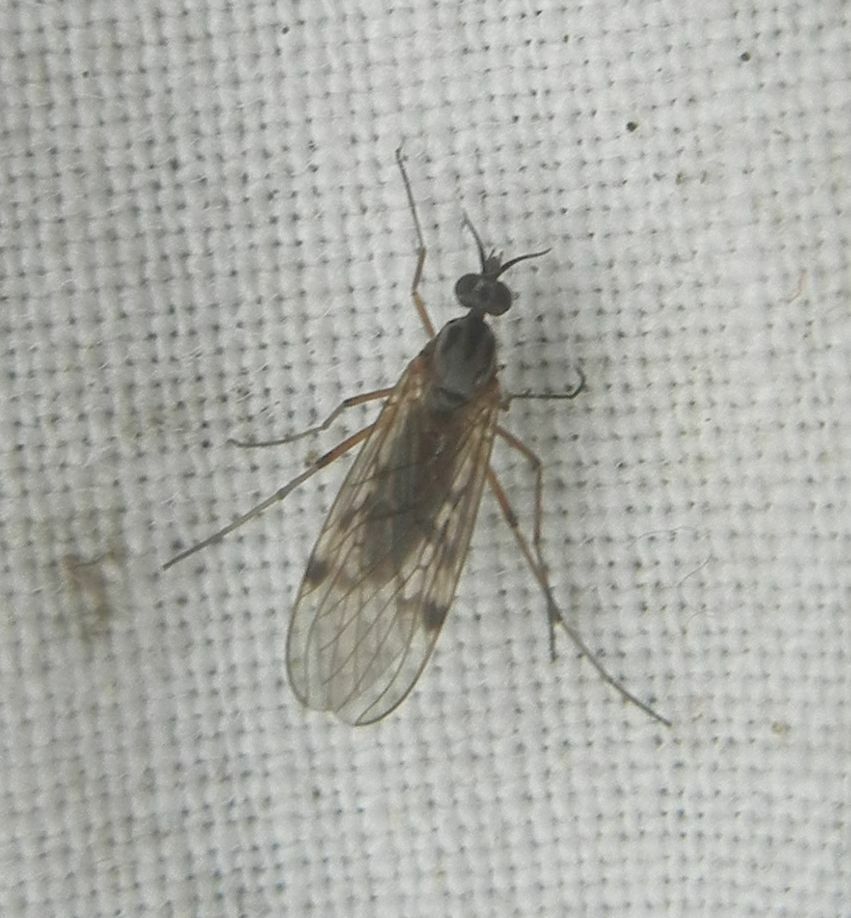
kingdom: Animalia
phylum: Arthropoda
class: Insecta
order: Diptera
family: Anisopodidae
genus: Sylvicola
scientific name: Sylvicola punctatus
